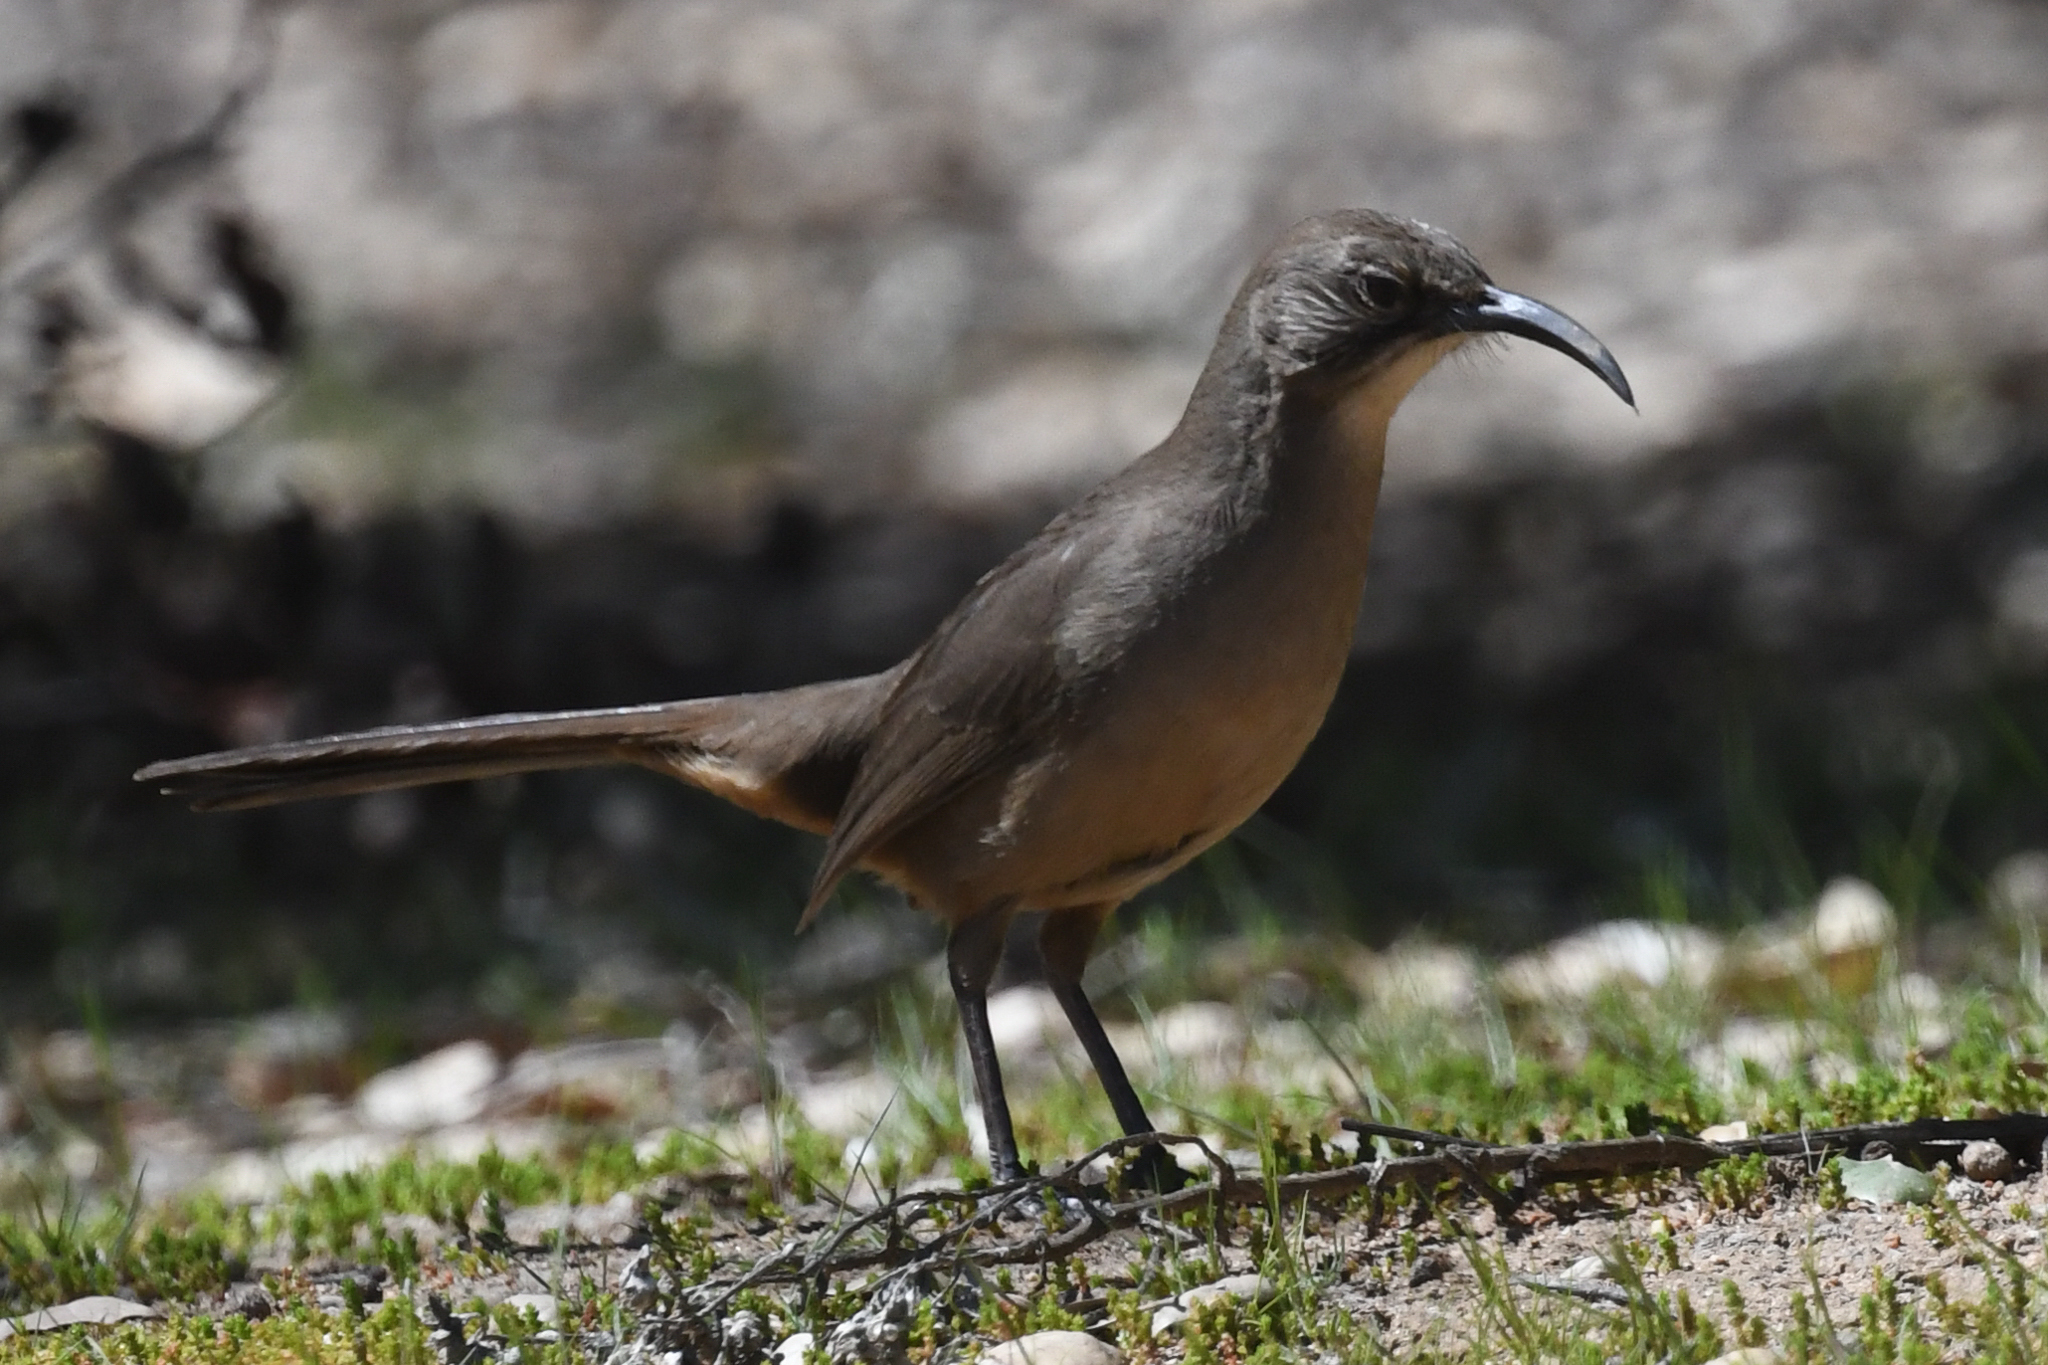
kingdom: Animalia
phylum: Chordata
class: Aves
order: Passeriformes
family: Mimidae
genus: Toxostoma
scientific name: Toxostoma redivivum
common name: California thrasher
